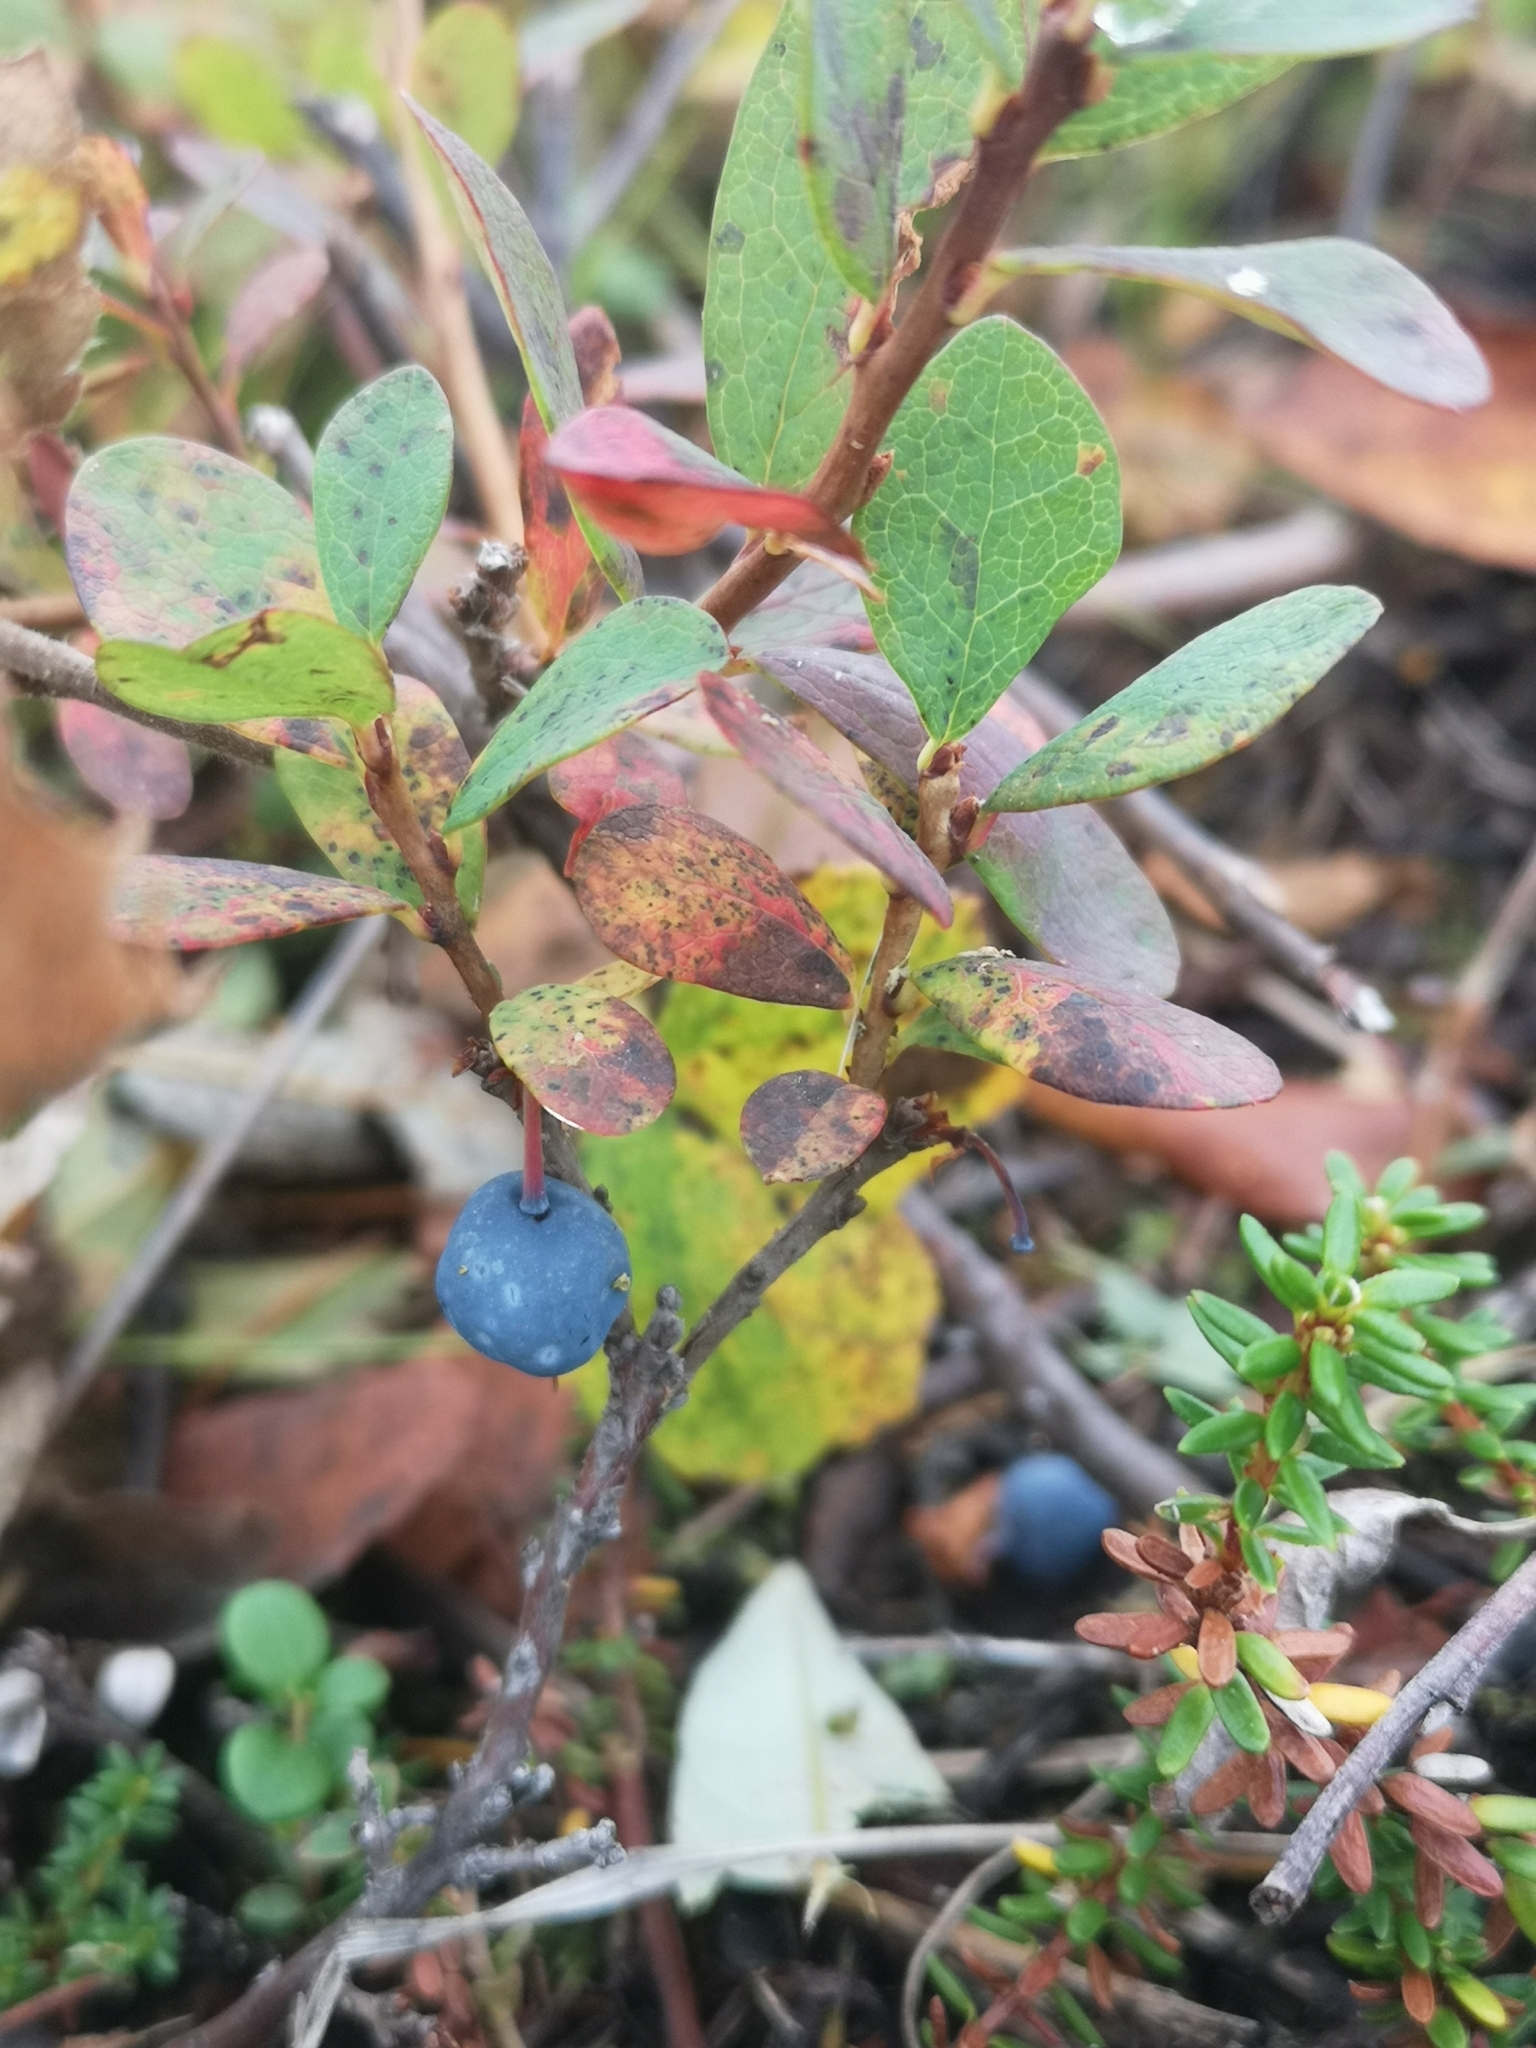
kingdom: Plantae
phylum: Tracheophyta
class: Magnoliopsida
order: Ericales
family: Ericaceae
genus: Vaccinium
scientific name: Vaccinium uliginosum
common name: Bog bilberry
